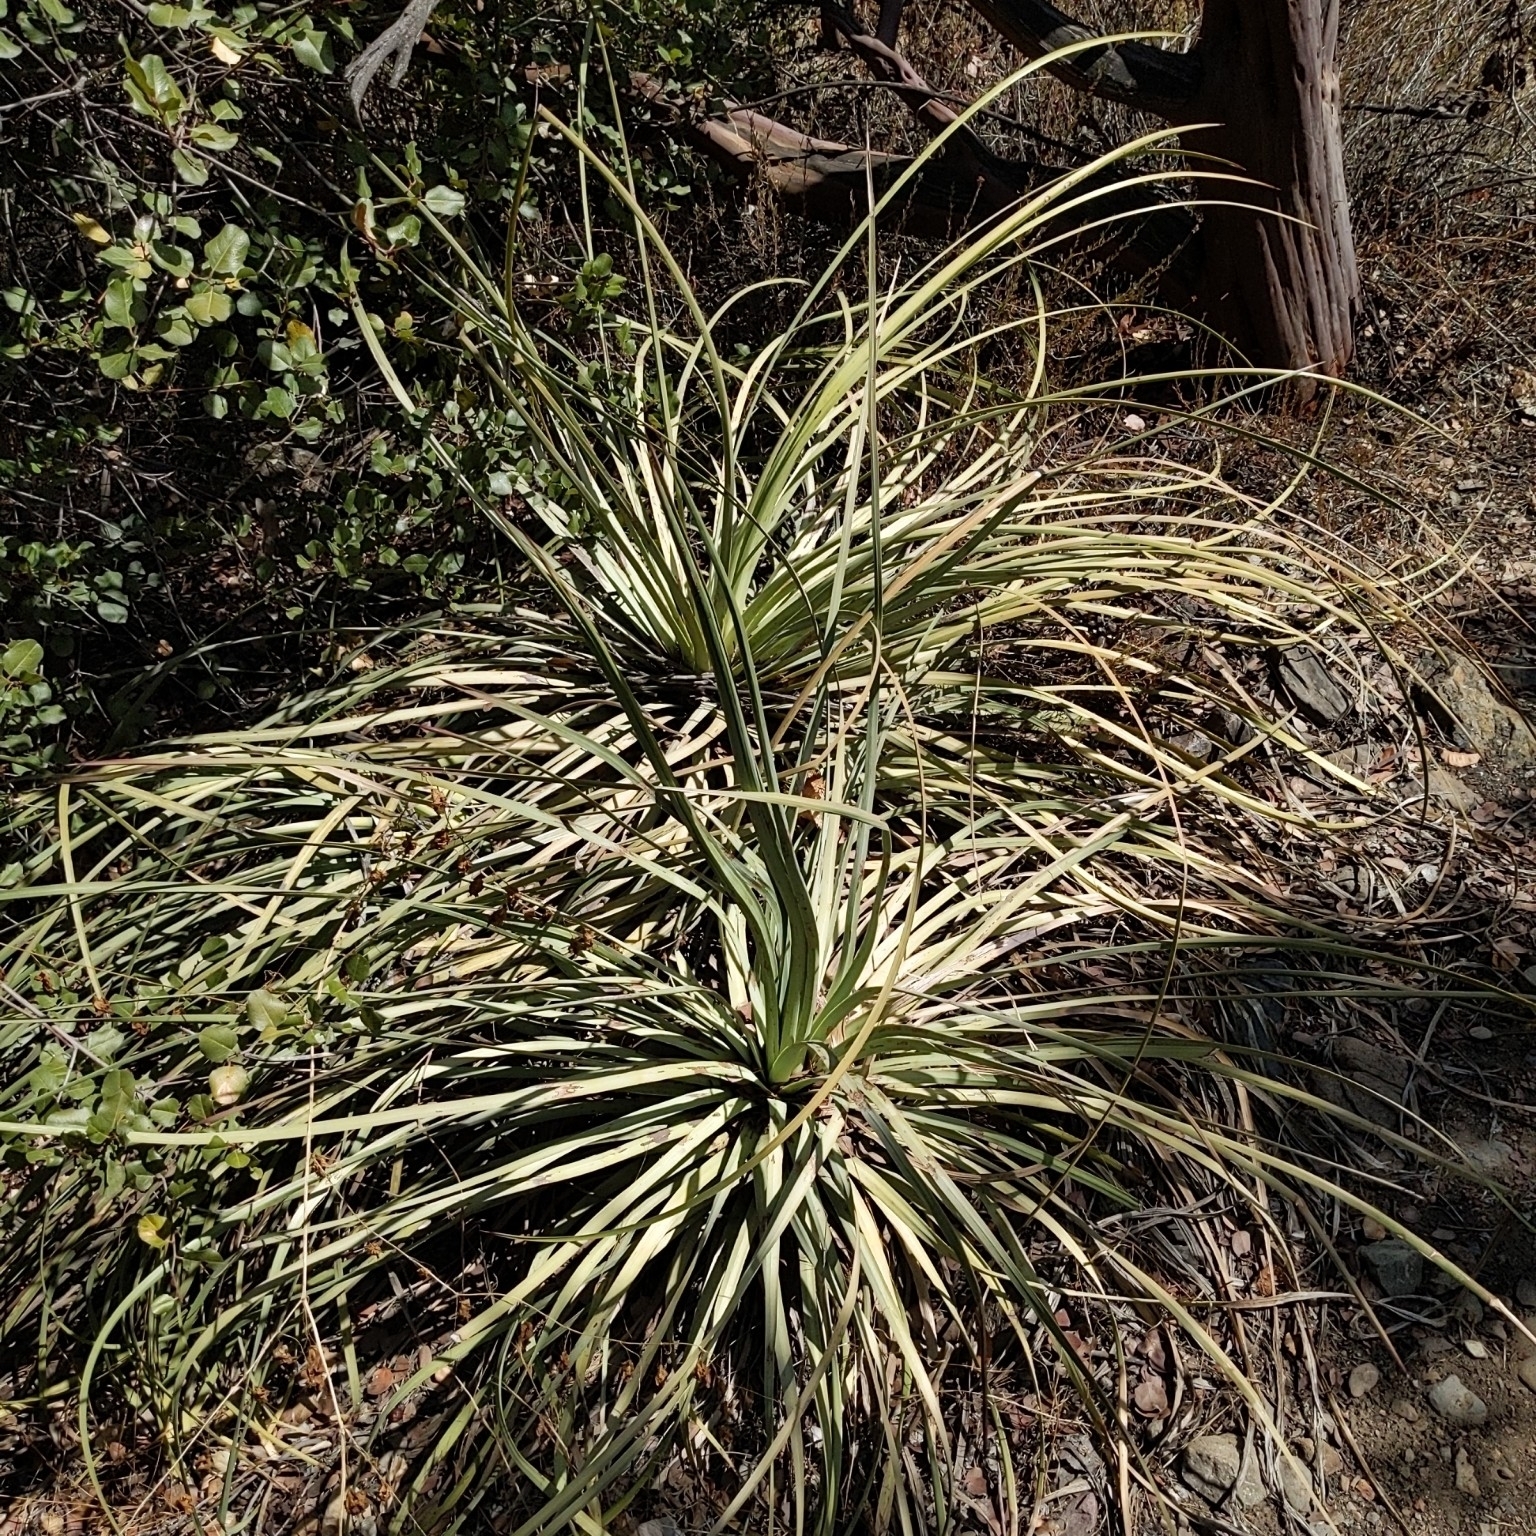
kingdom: Plantae
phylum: Tracheophyta
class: Liliopsida
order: Asparagales
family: Asparagaceae
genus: Hesperoyucca
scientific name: Hesperoyucca whipplei
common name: Our lord's-candle
